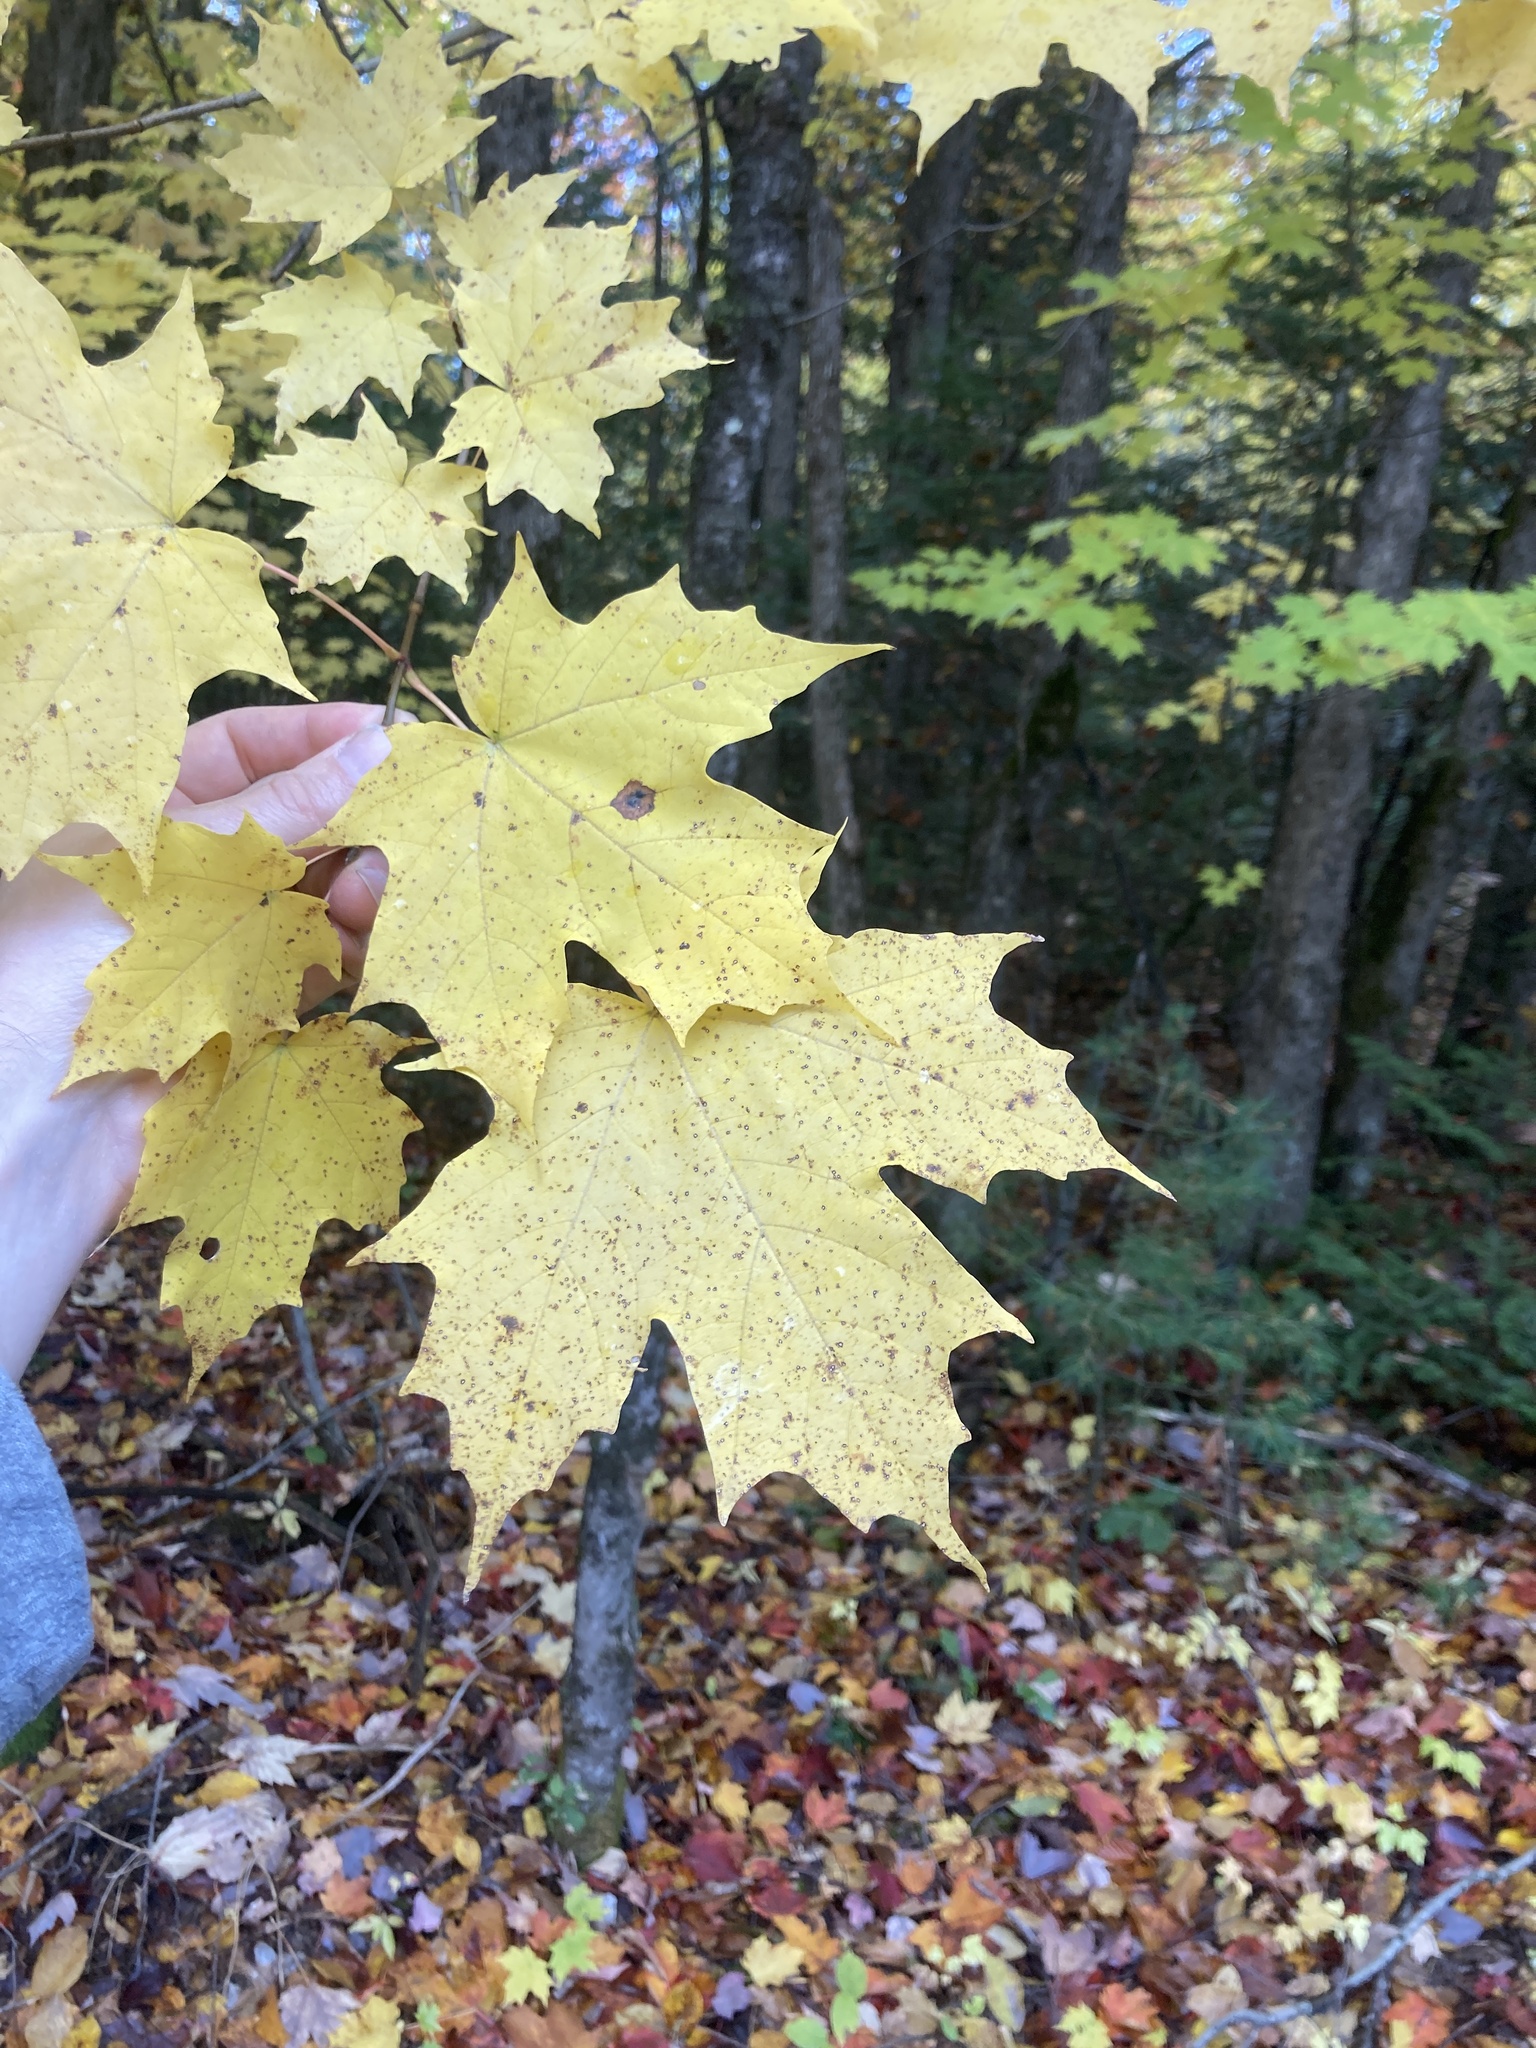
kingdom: Plantae
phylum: Tracheophyta
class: Magnoliopsida
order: Sapindales
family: Sapindaceae
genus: Acer
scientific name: Acer saccharum
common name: Sugar maple
